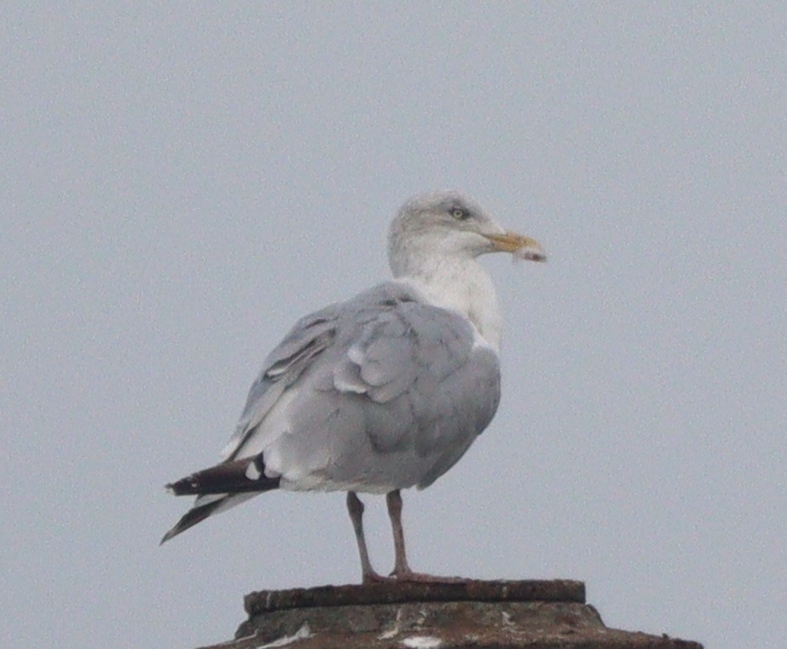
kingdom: Animalia
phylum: Chordata
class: Aves
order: Charadriiformes
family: Laridae
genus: Larus
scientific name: Larus argentatus
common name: Herring gull
